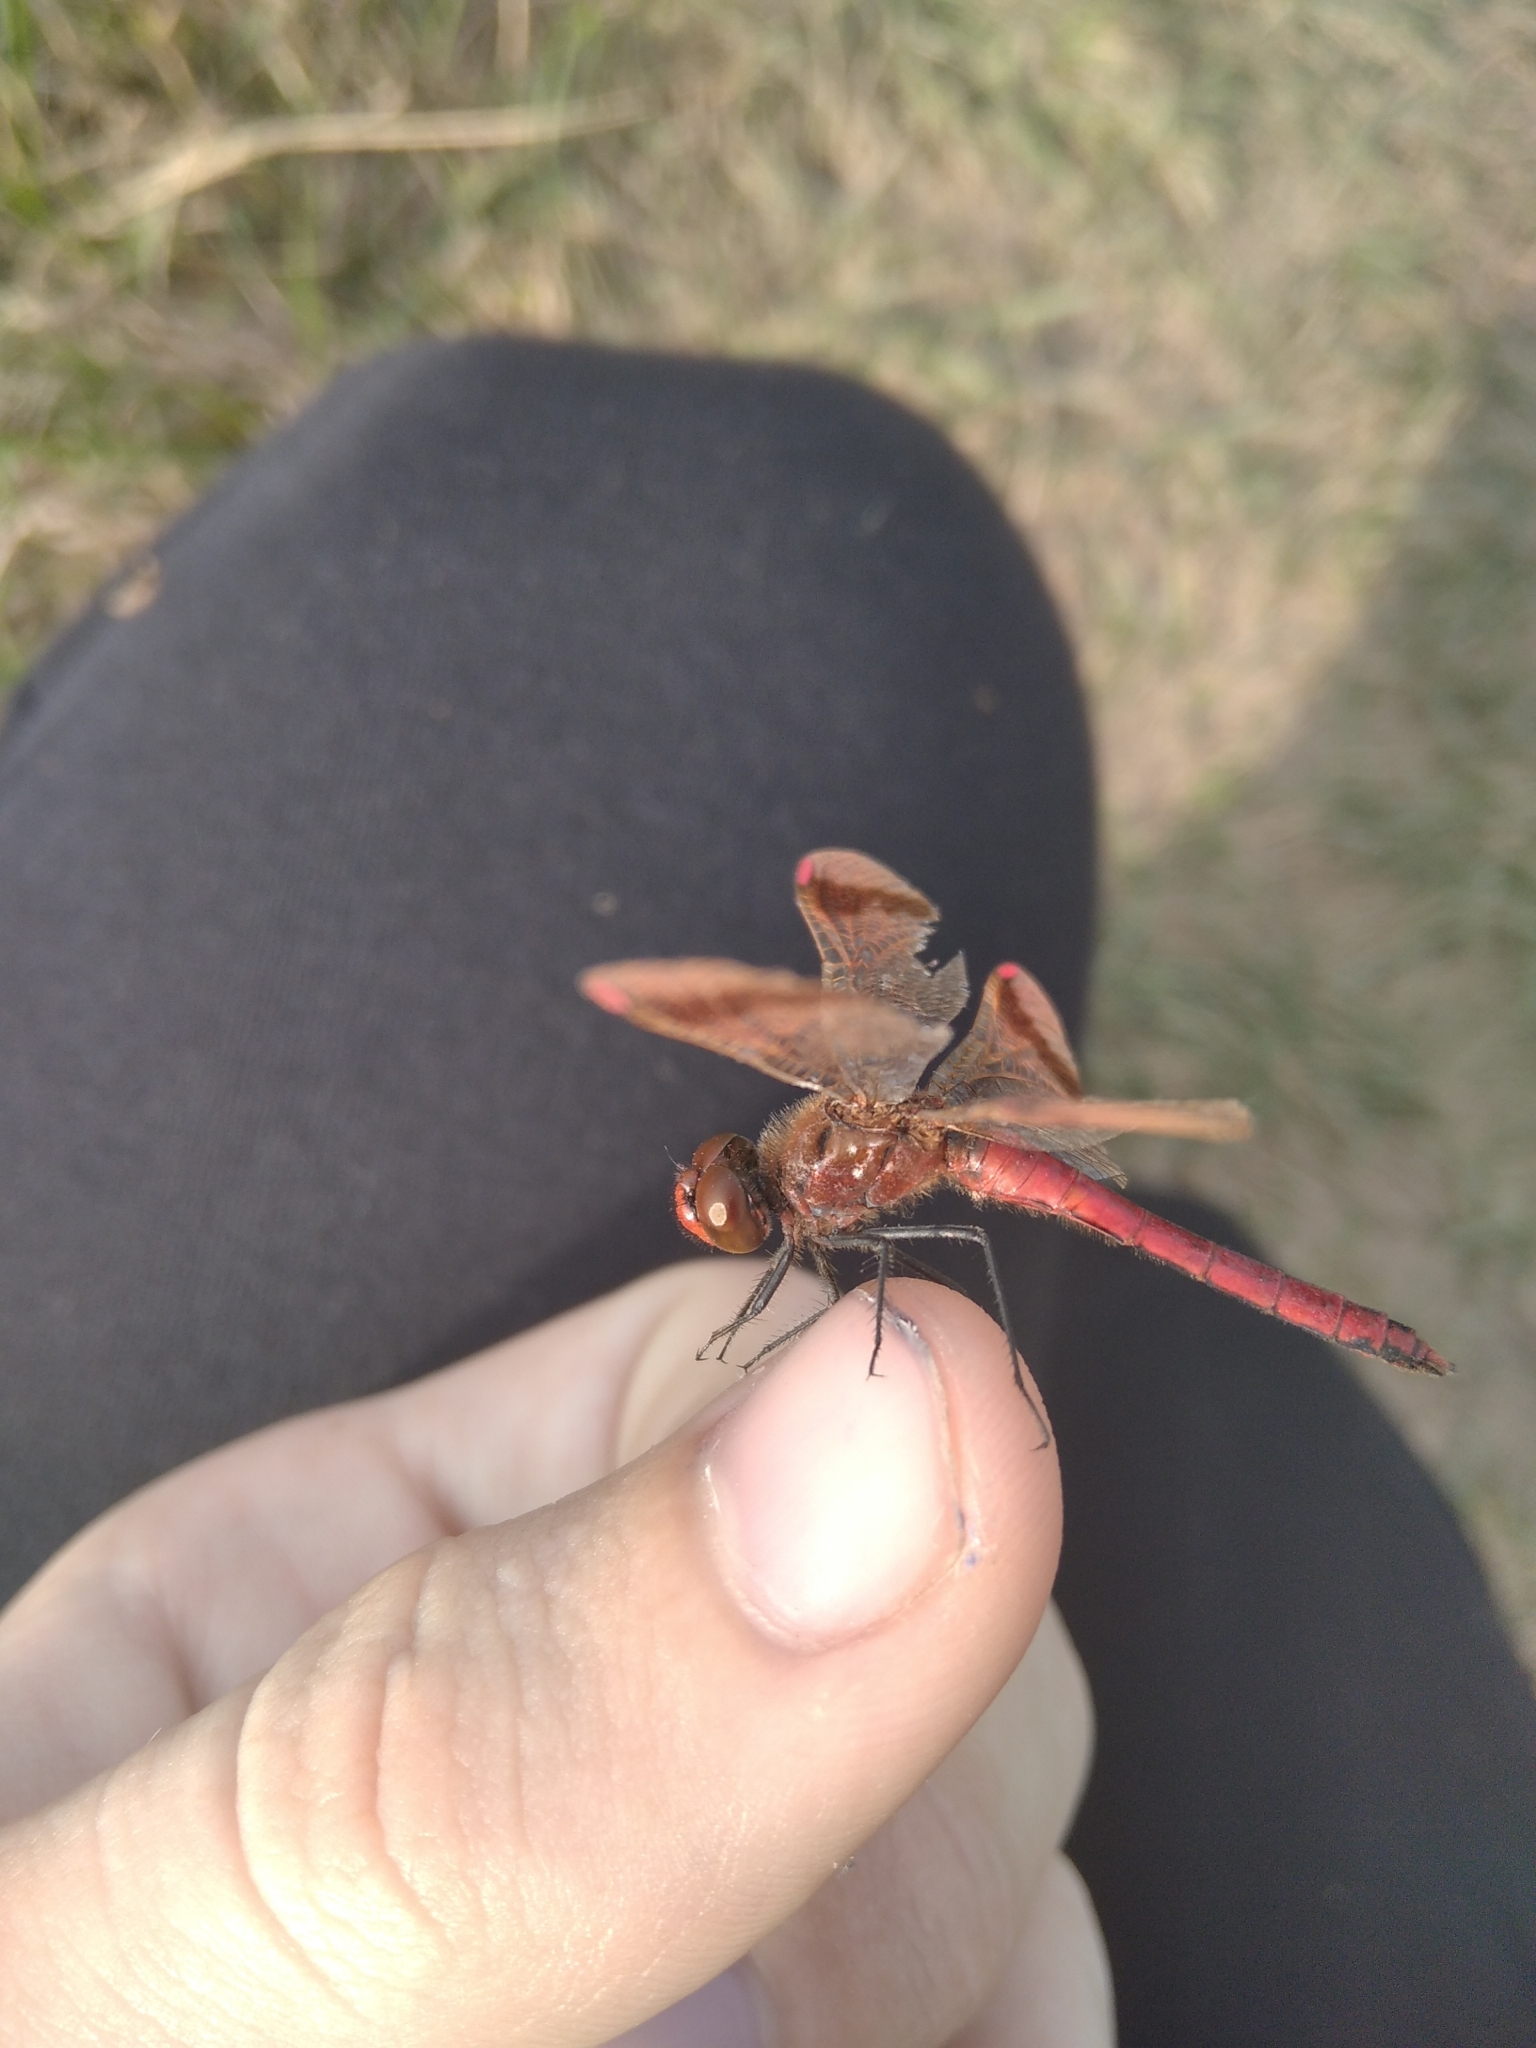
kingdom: Animalia
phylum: Arthropoda
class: Insecta
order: Odonata
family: Libellulidae
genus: Sympetrum
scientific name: Sympetrum pedemontanum
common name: Banded darter
